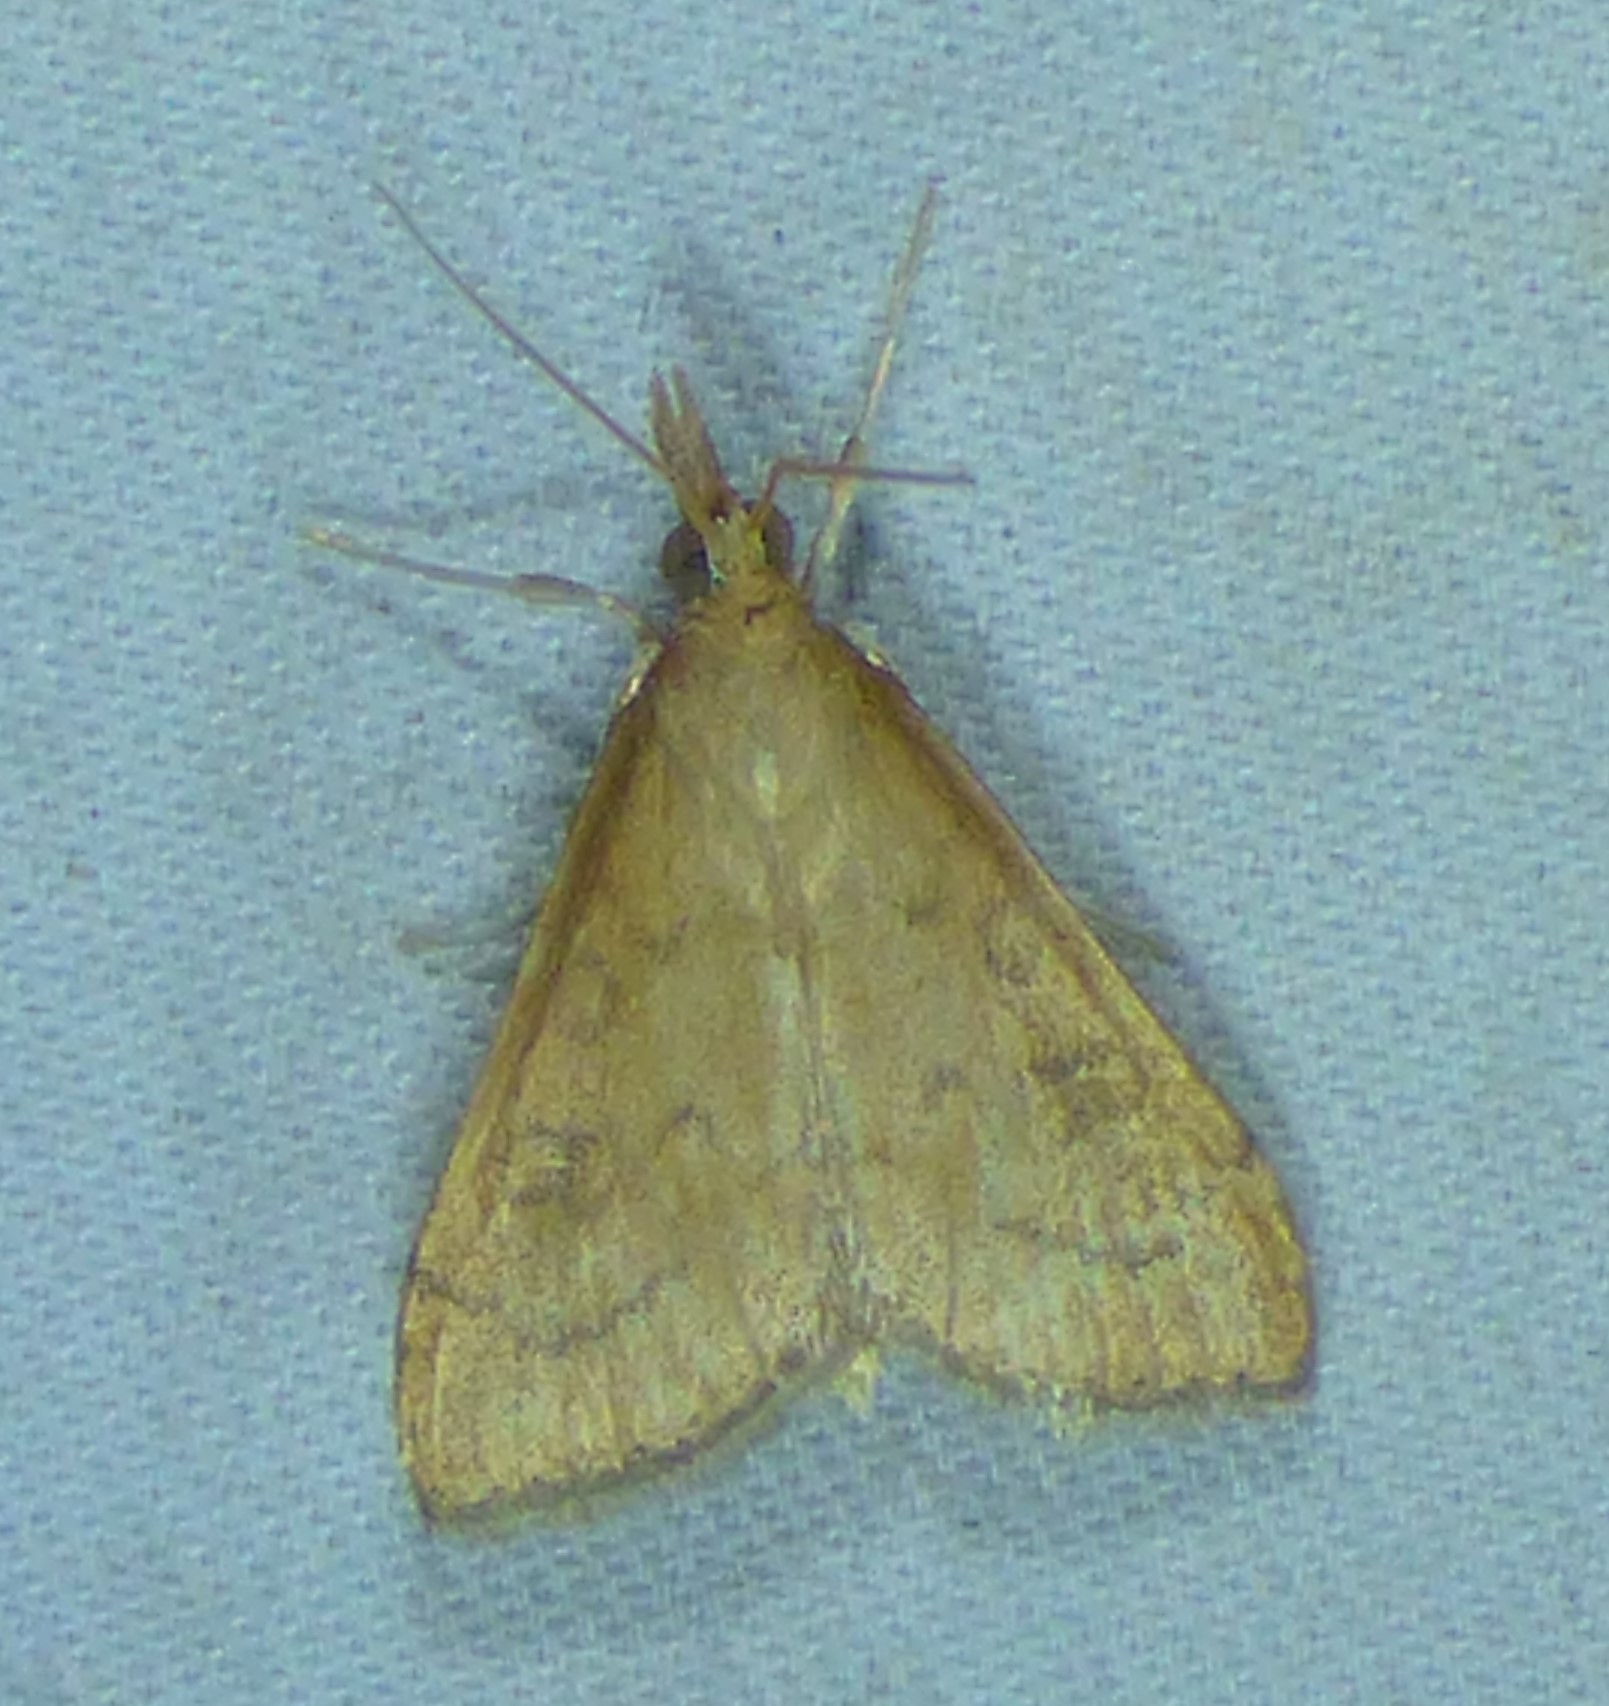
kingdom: Animalia
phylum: Arthropoda
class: Insecta
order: Lepidoptera
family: Crambidae
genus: Udea
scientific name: Udea rubigalis
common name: Celery leaftier moth
